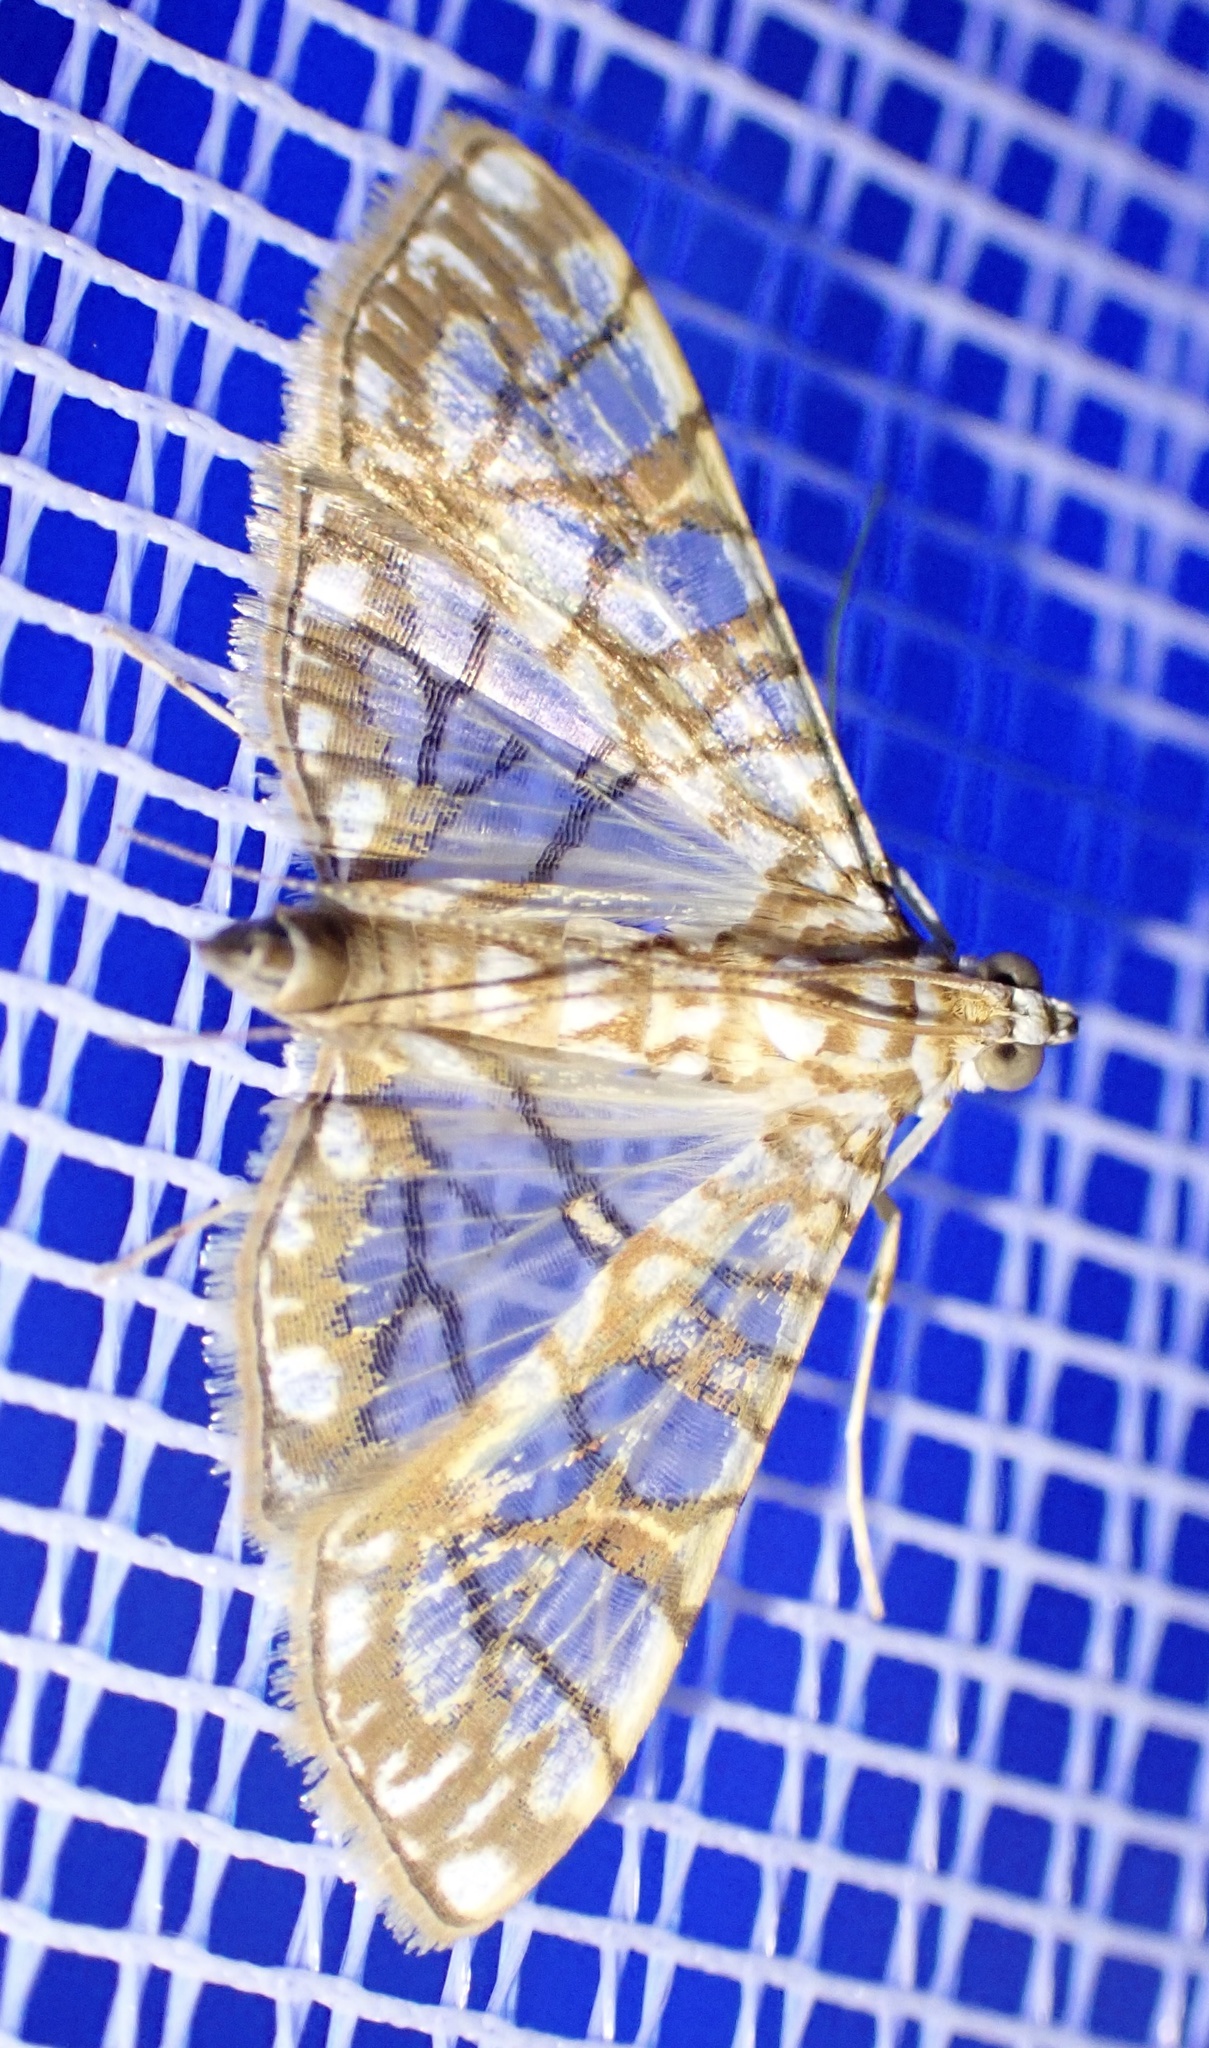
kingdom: Animalia
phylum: Arthropoda
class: Insecta
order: Lepidoptera
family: Crambidae
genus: Synclera
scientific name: Synclera traducalis
